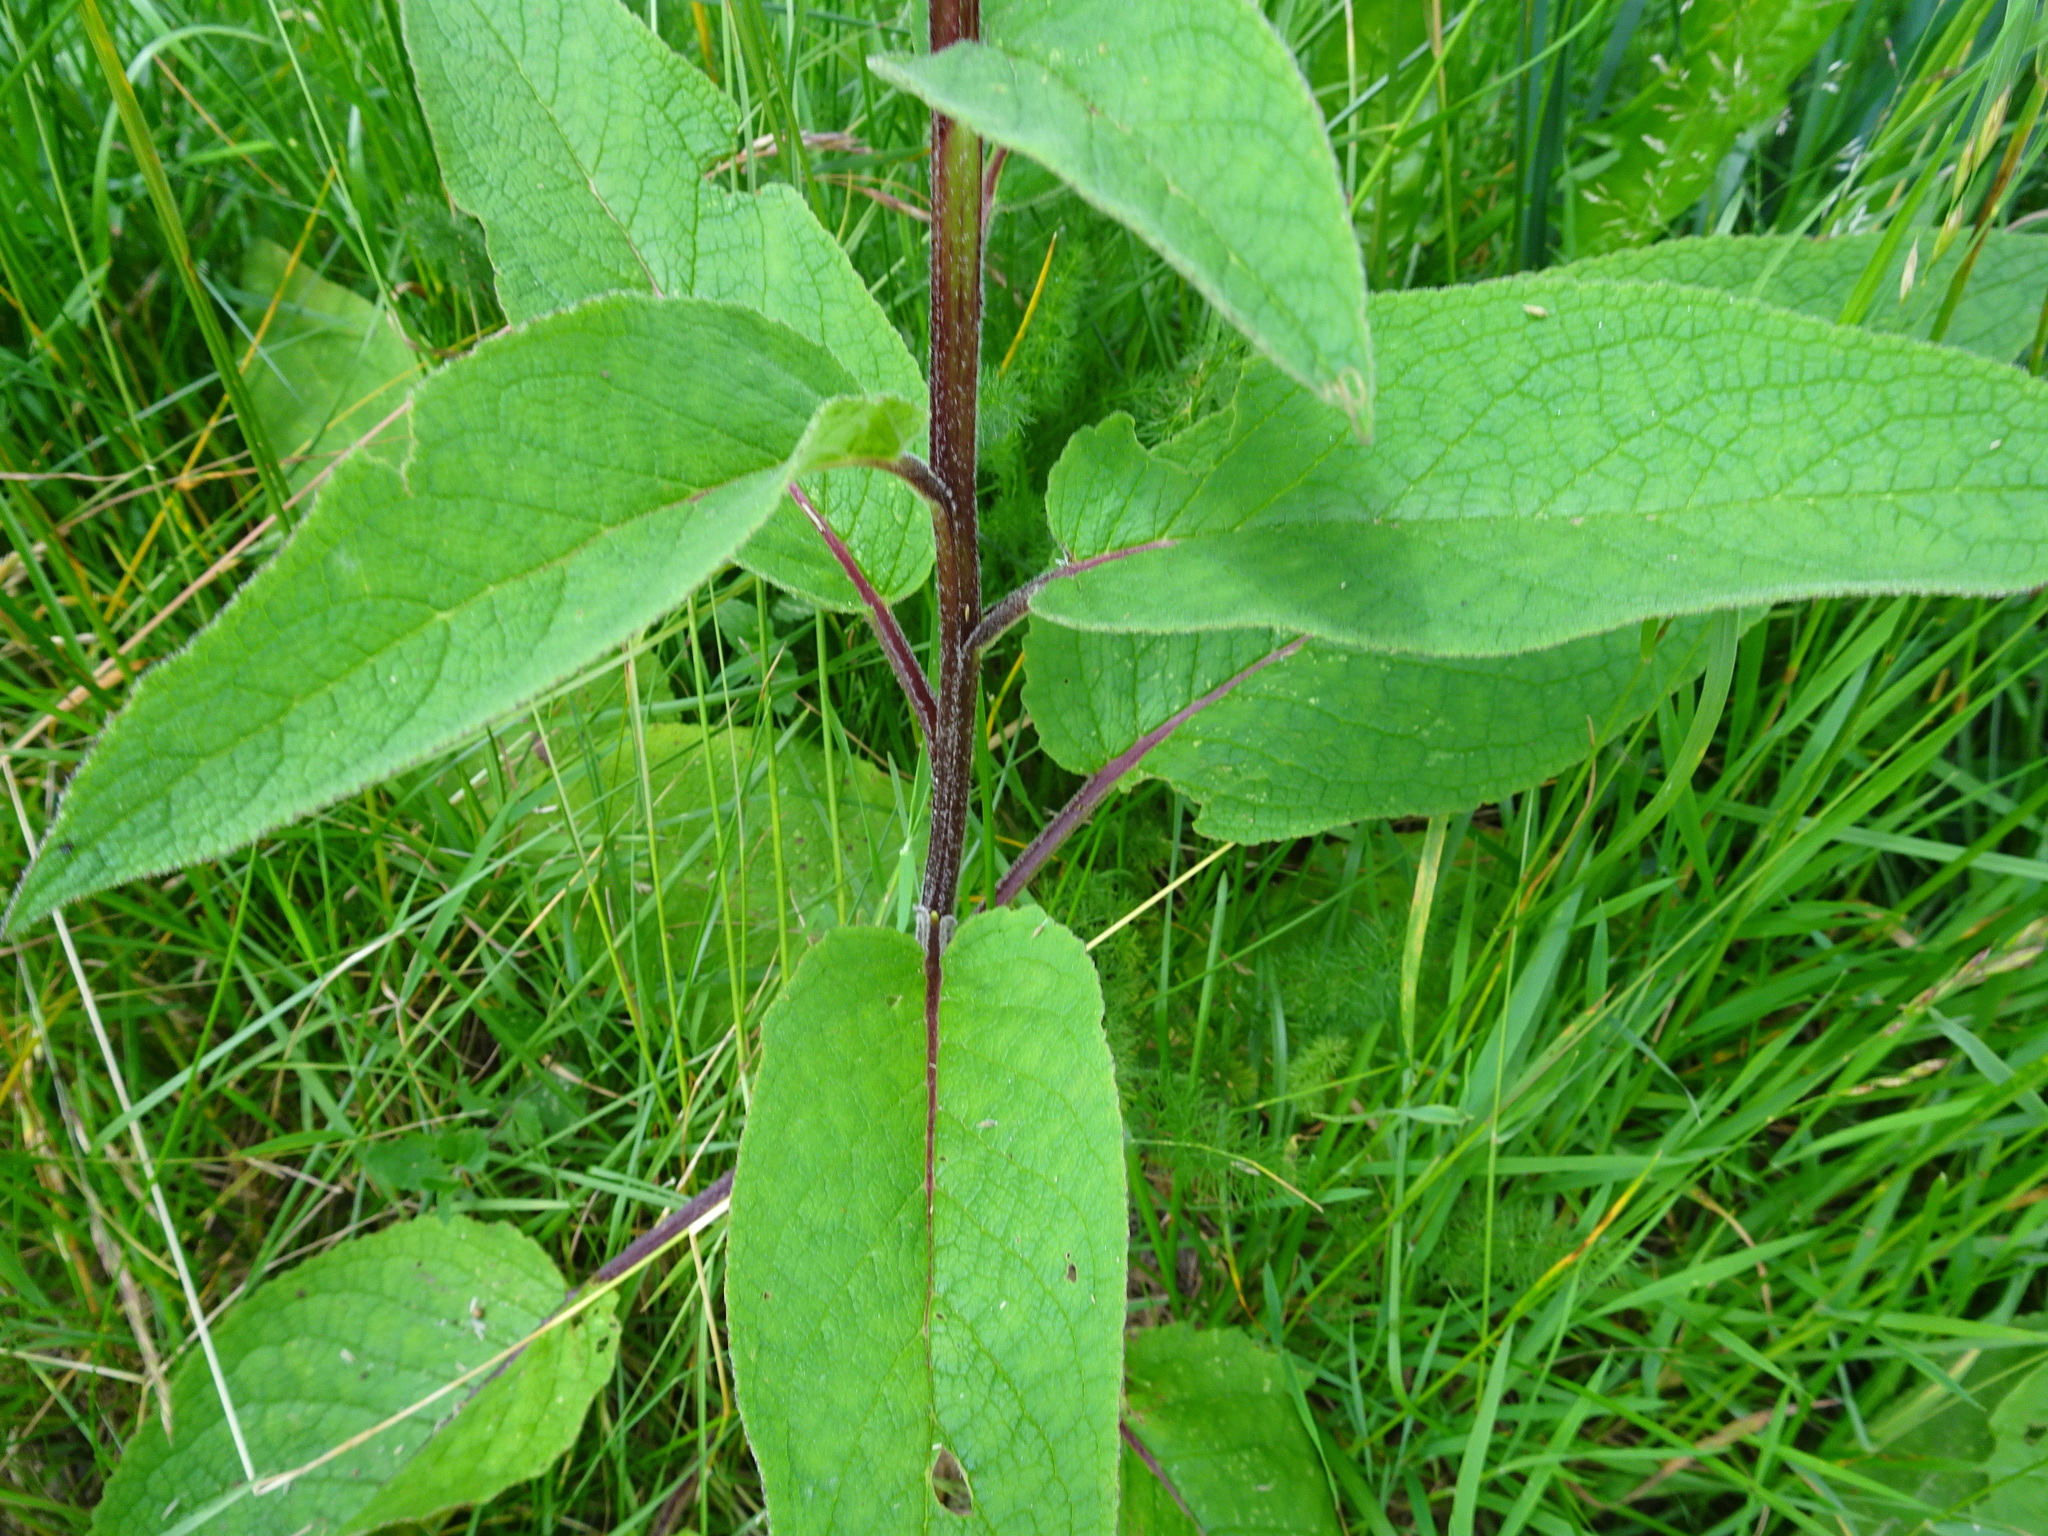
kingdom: Plantae
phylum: Tracheophyta
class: Magnoliopsida
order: Lamiales
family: Scrophulariaceae
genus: Verbascum
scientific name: Verbascum nigrum
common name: Dark mullein
